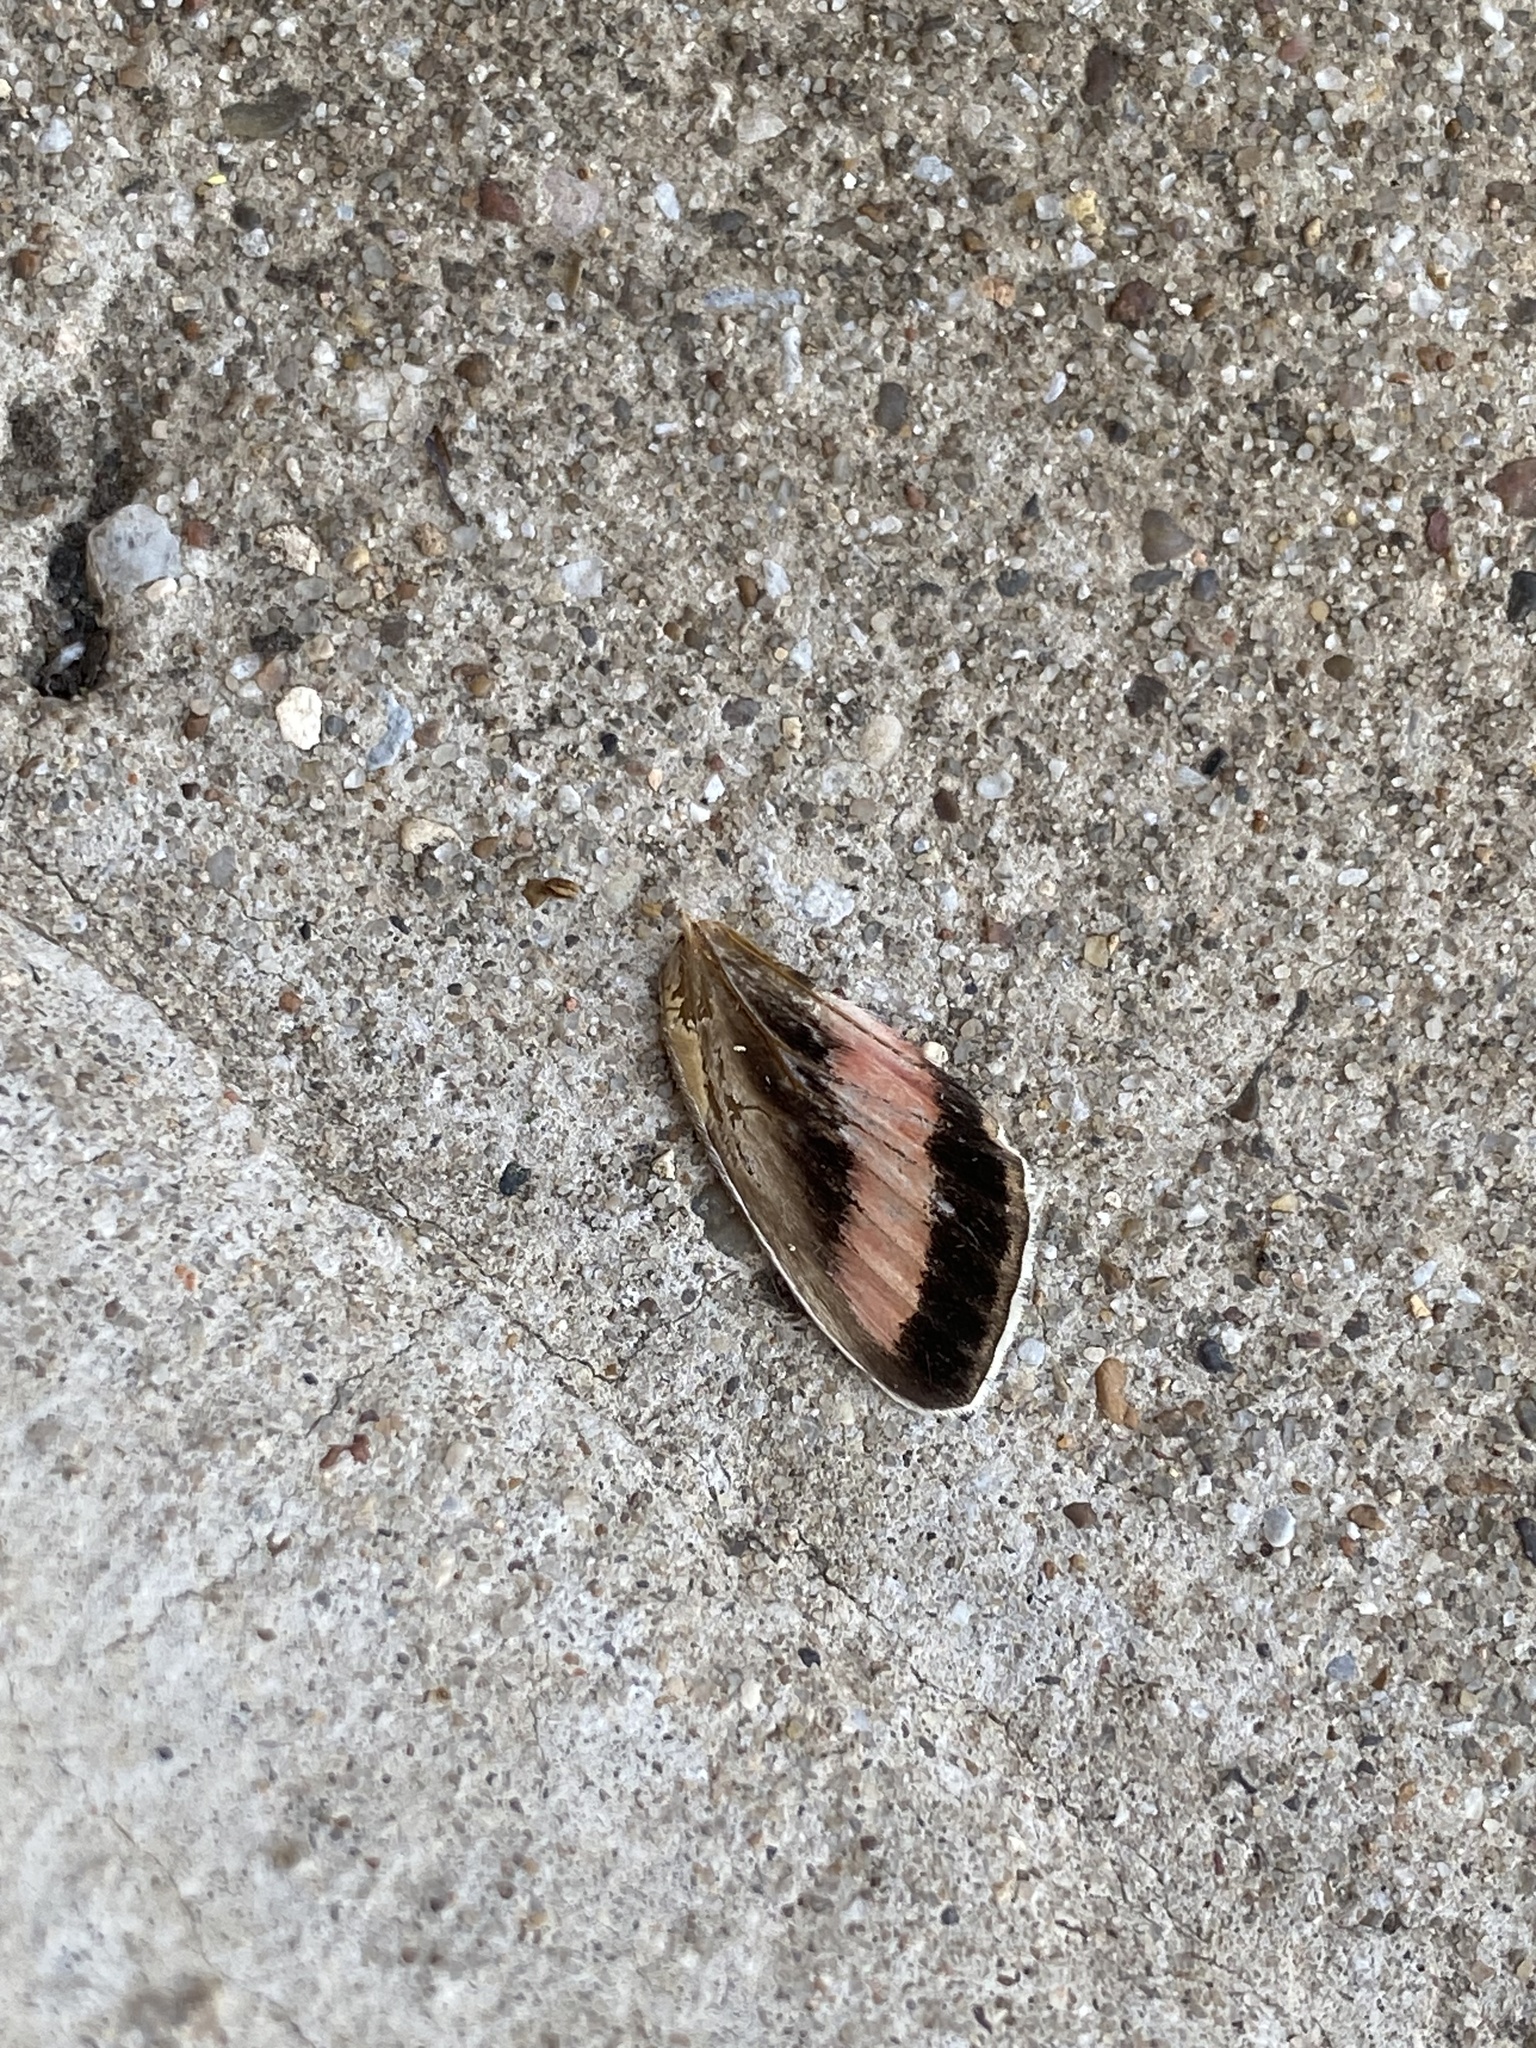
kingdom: Animalia
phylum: Arthropoda
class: Insecta
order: Lepidoptera
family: Sphingidae
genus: Hyles
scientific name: Hyles lineata
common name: White-lined sphinx
